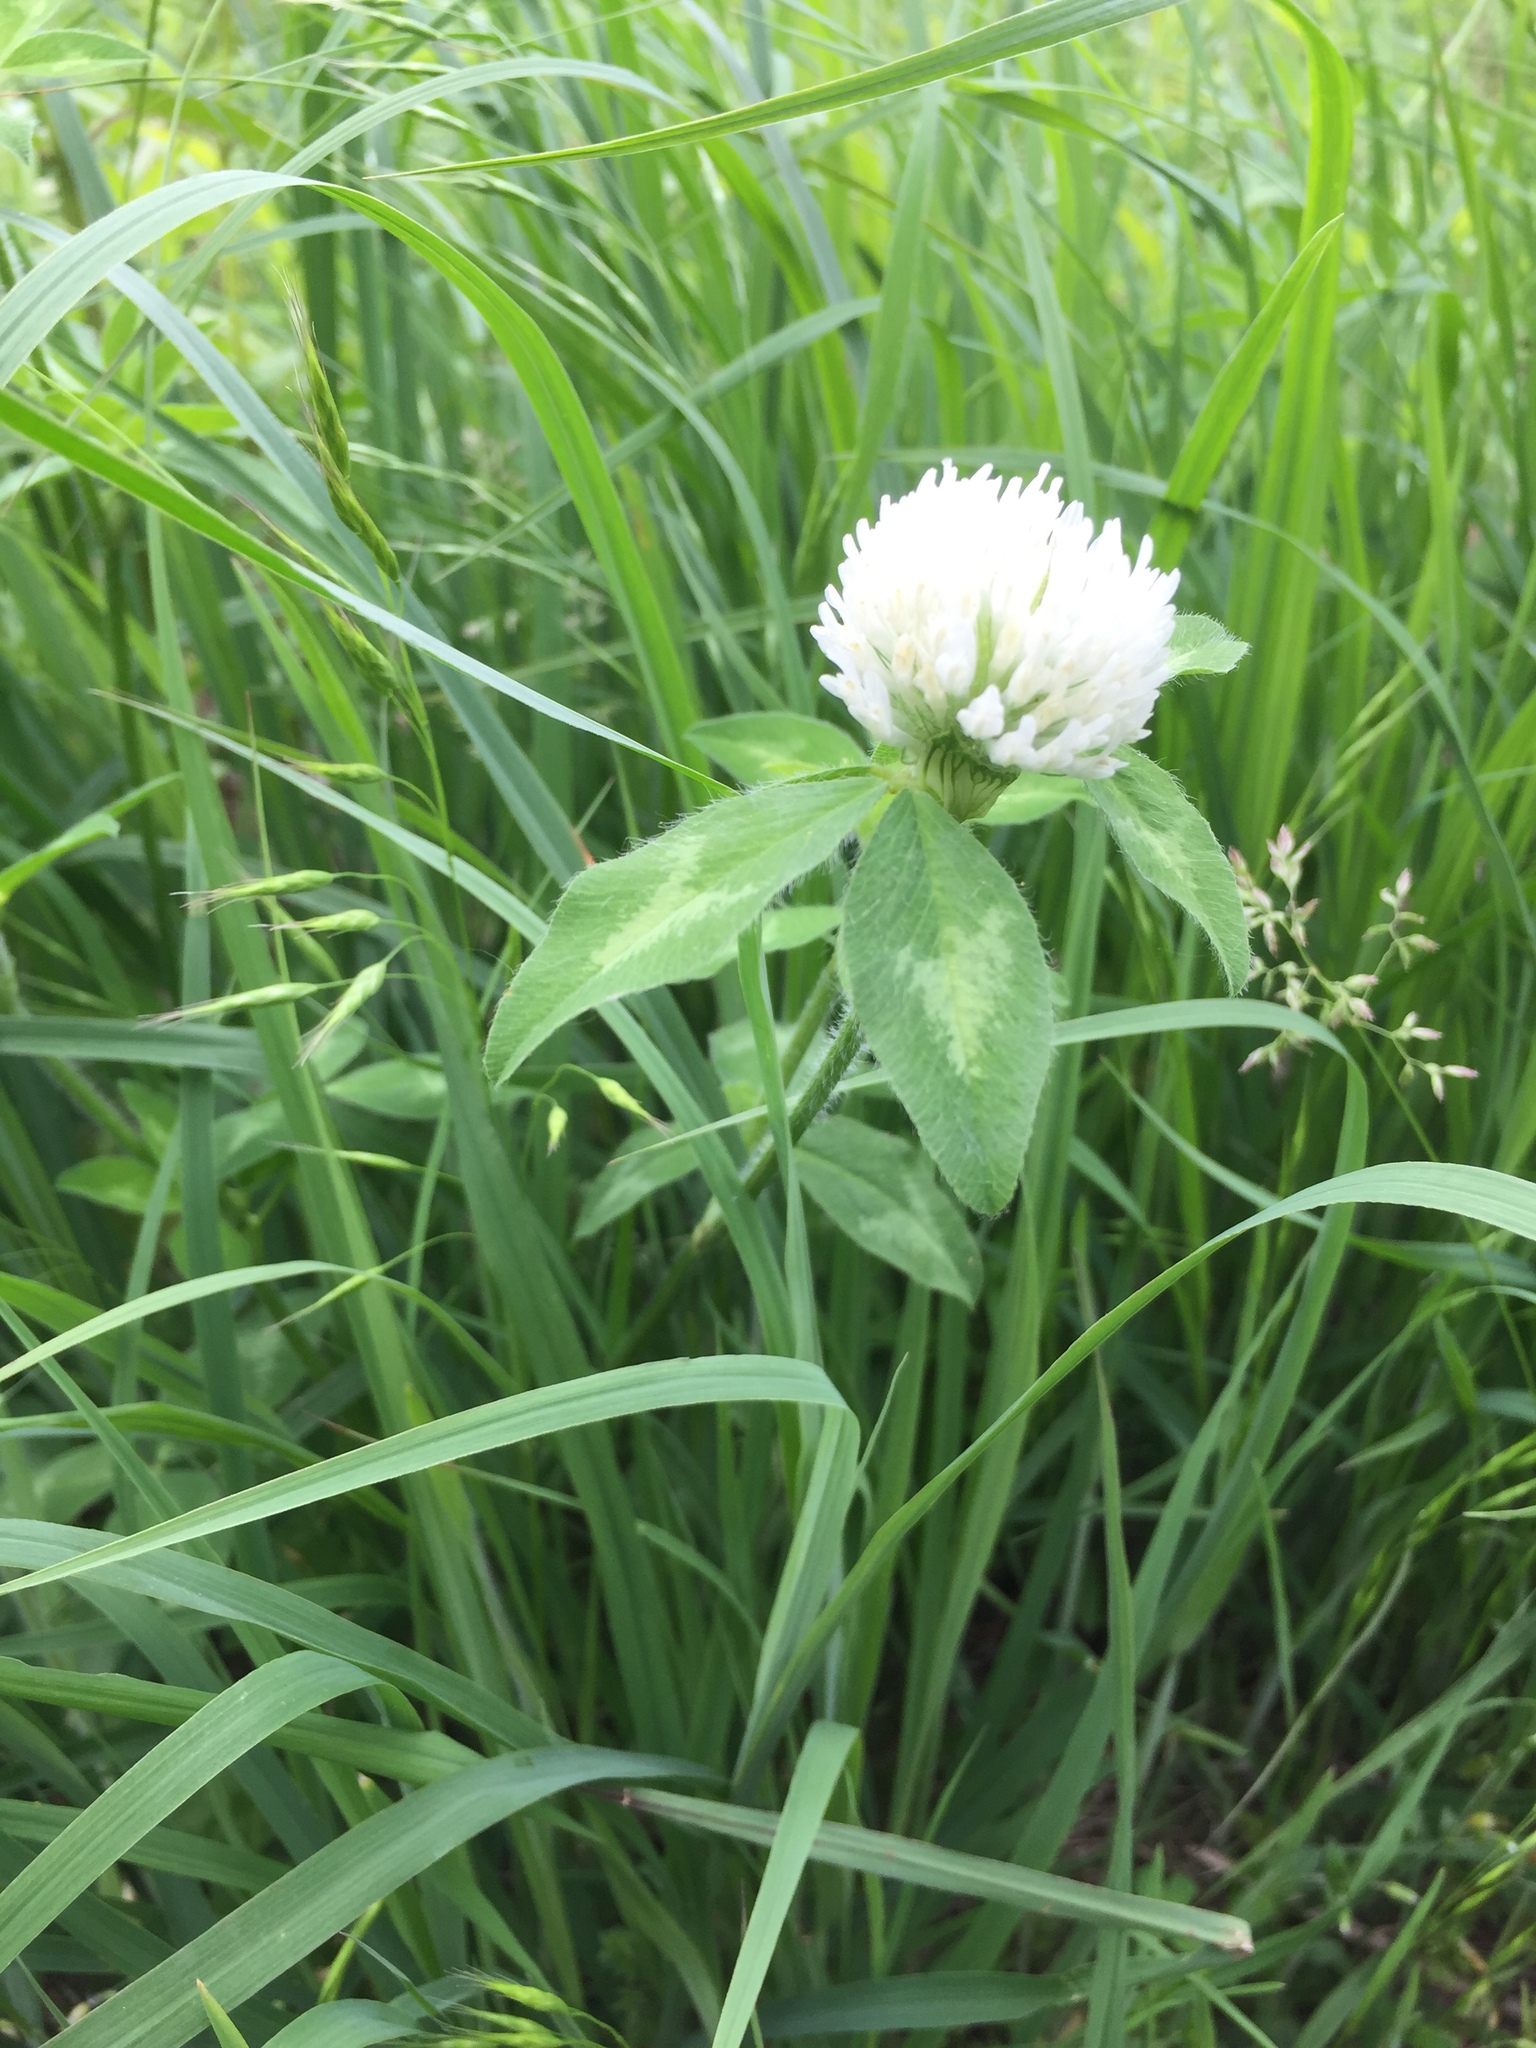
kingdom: Plantae
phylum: Tracheophyta
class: Magnoliopsida
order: Fabales
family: Fabaceae
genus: Trifolium
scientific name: Trifolium pratense
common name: Red clover
